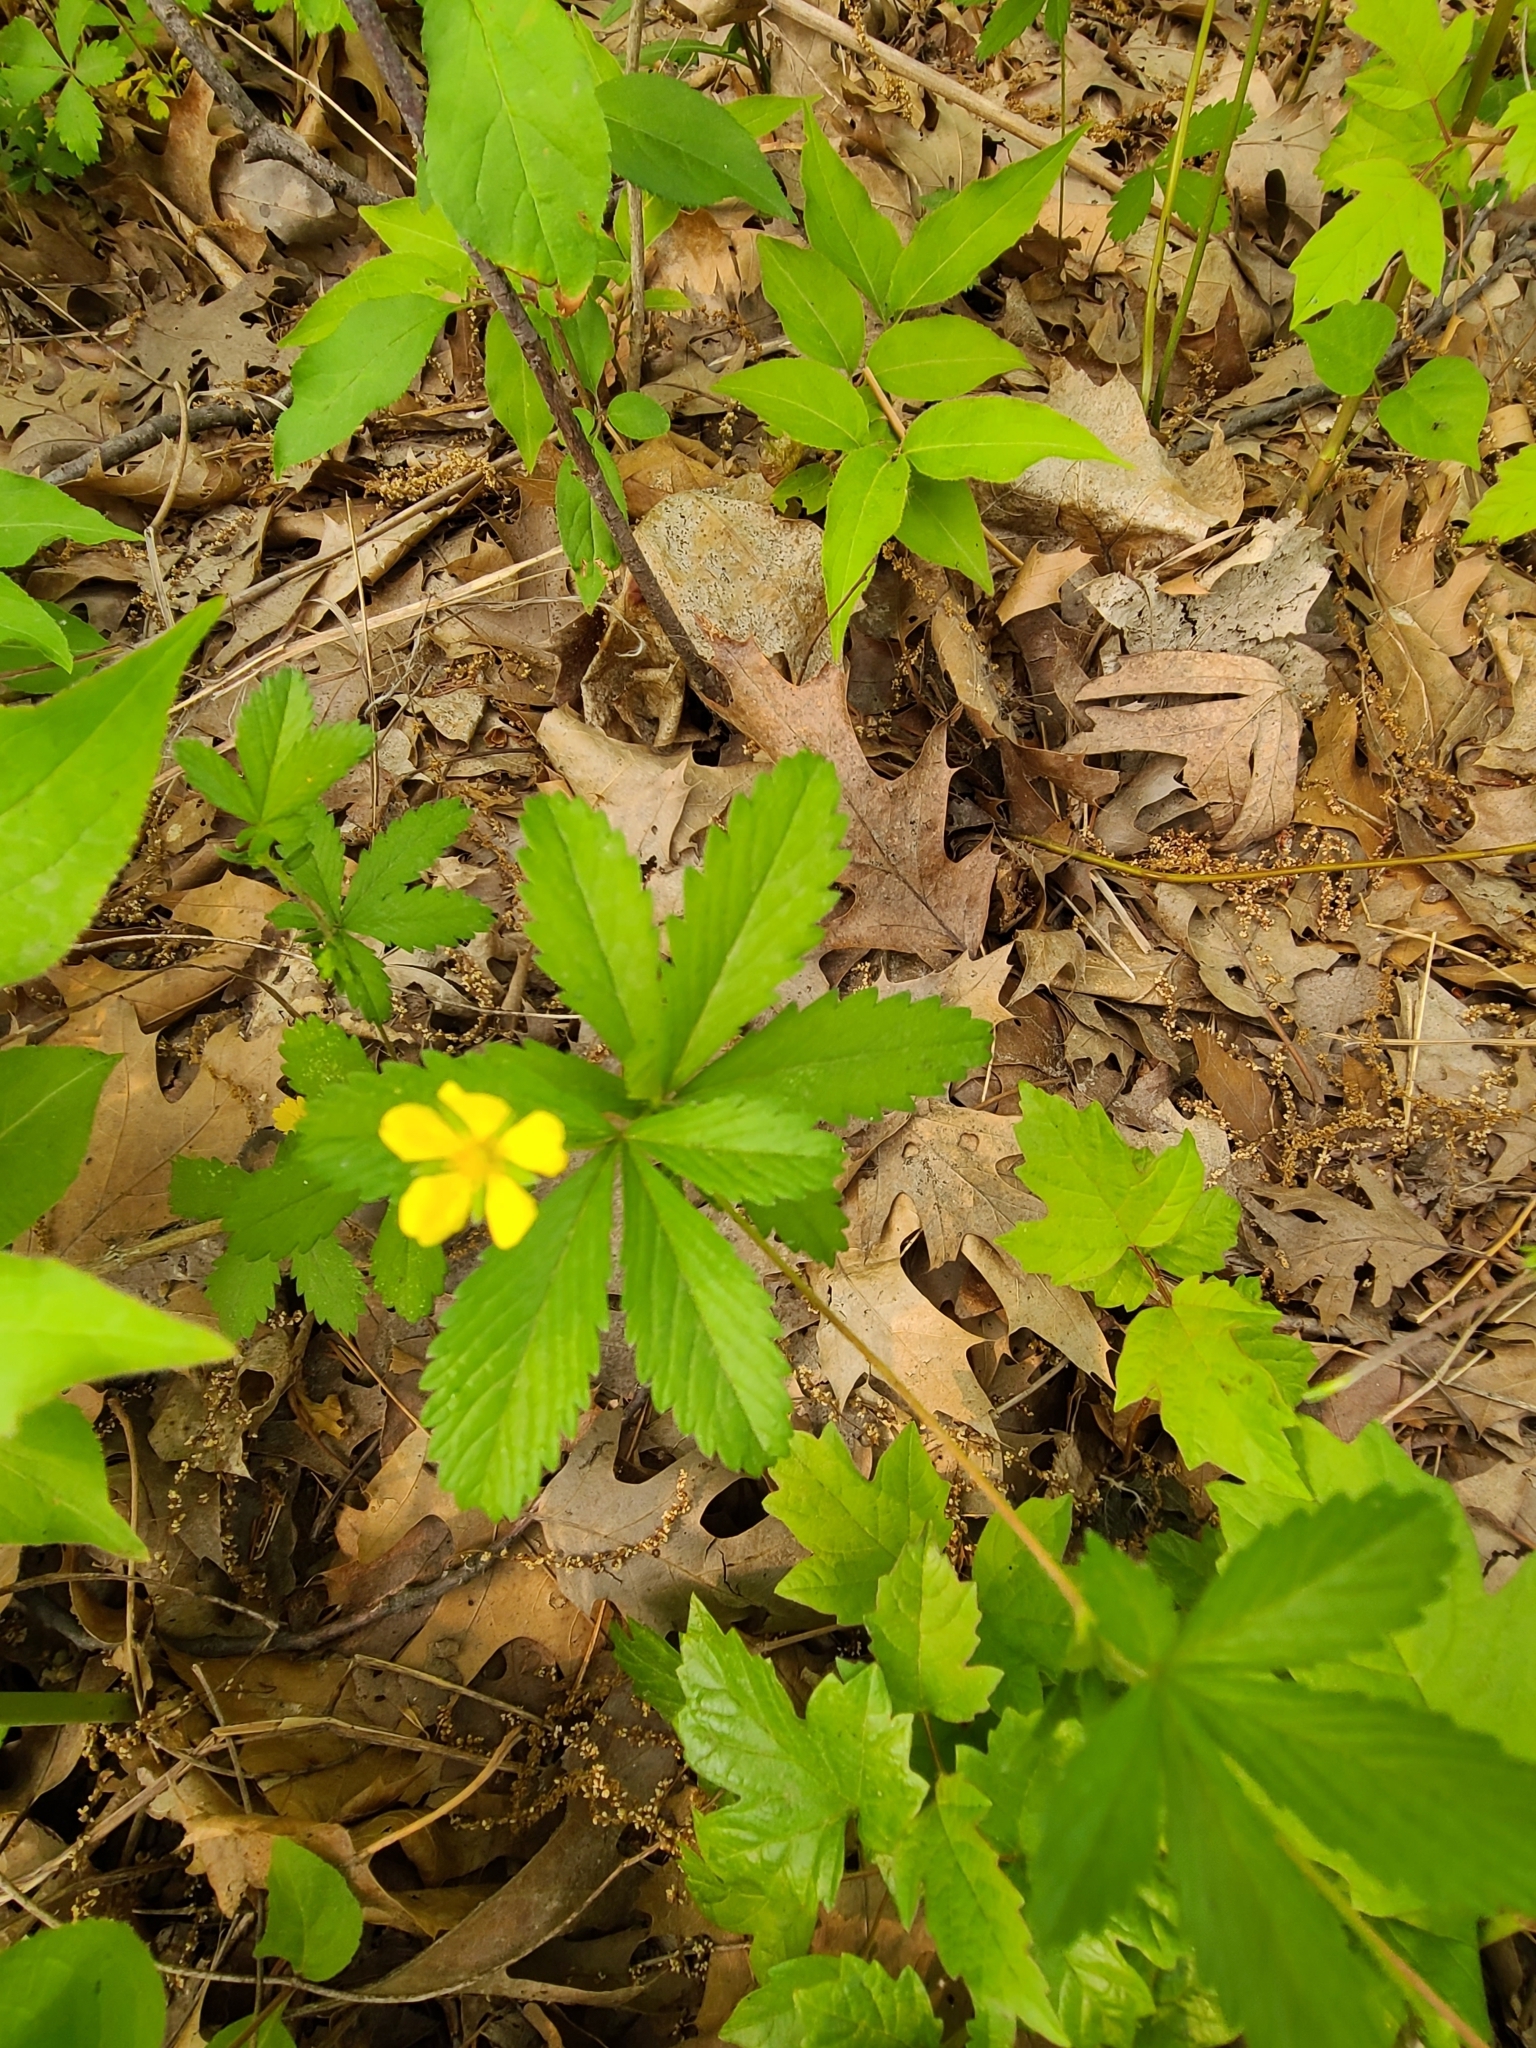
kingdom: Plantae
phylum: Tracheophyta
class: Magnoliopsida
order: Rosales
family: Rosaceae
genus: Potentilla
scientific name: Potentilla simplex
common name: Old field cinquefoil
